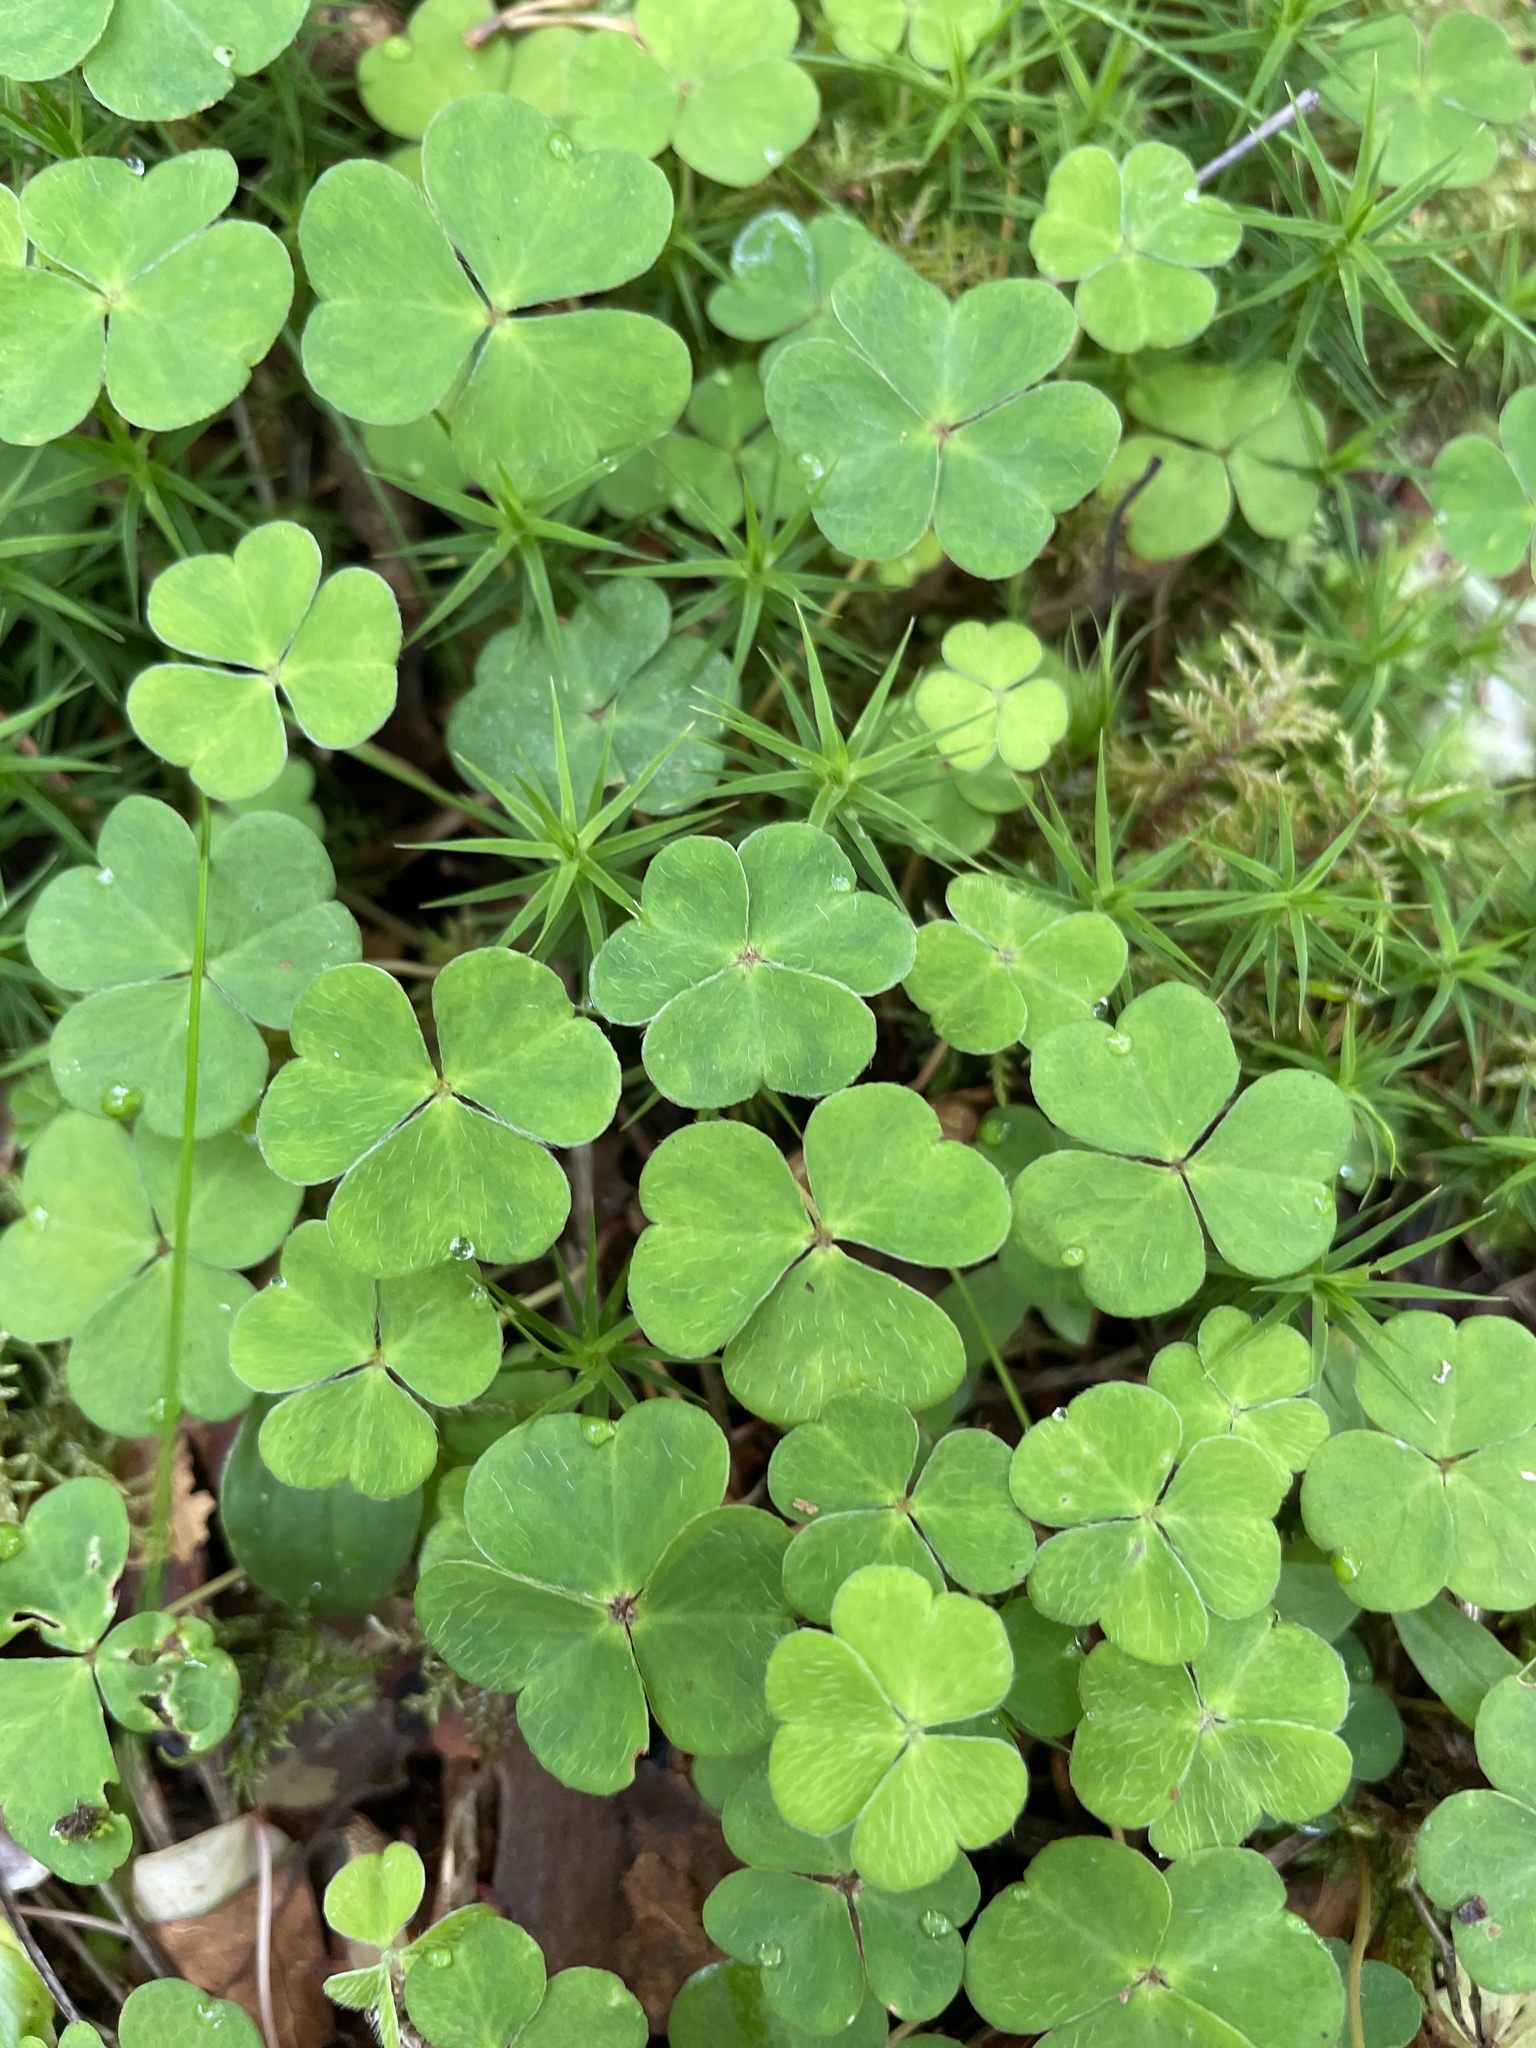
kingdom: Plantae
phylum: Tracheophyta
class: Magnoliopsida
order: Oxalidales
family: Oxalidaceae
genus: Oxalis
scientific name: Oxalis acetosella
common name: Wood-sorrel
